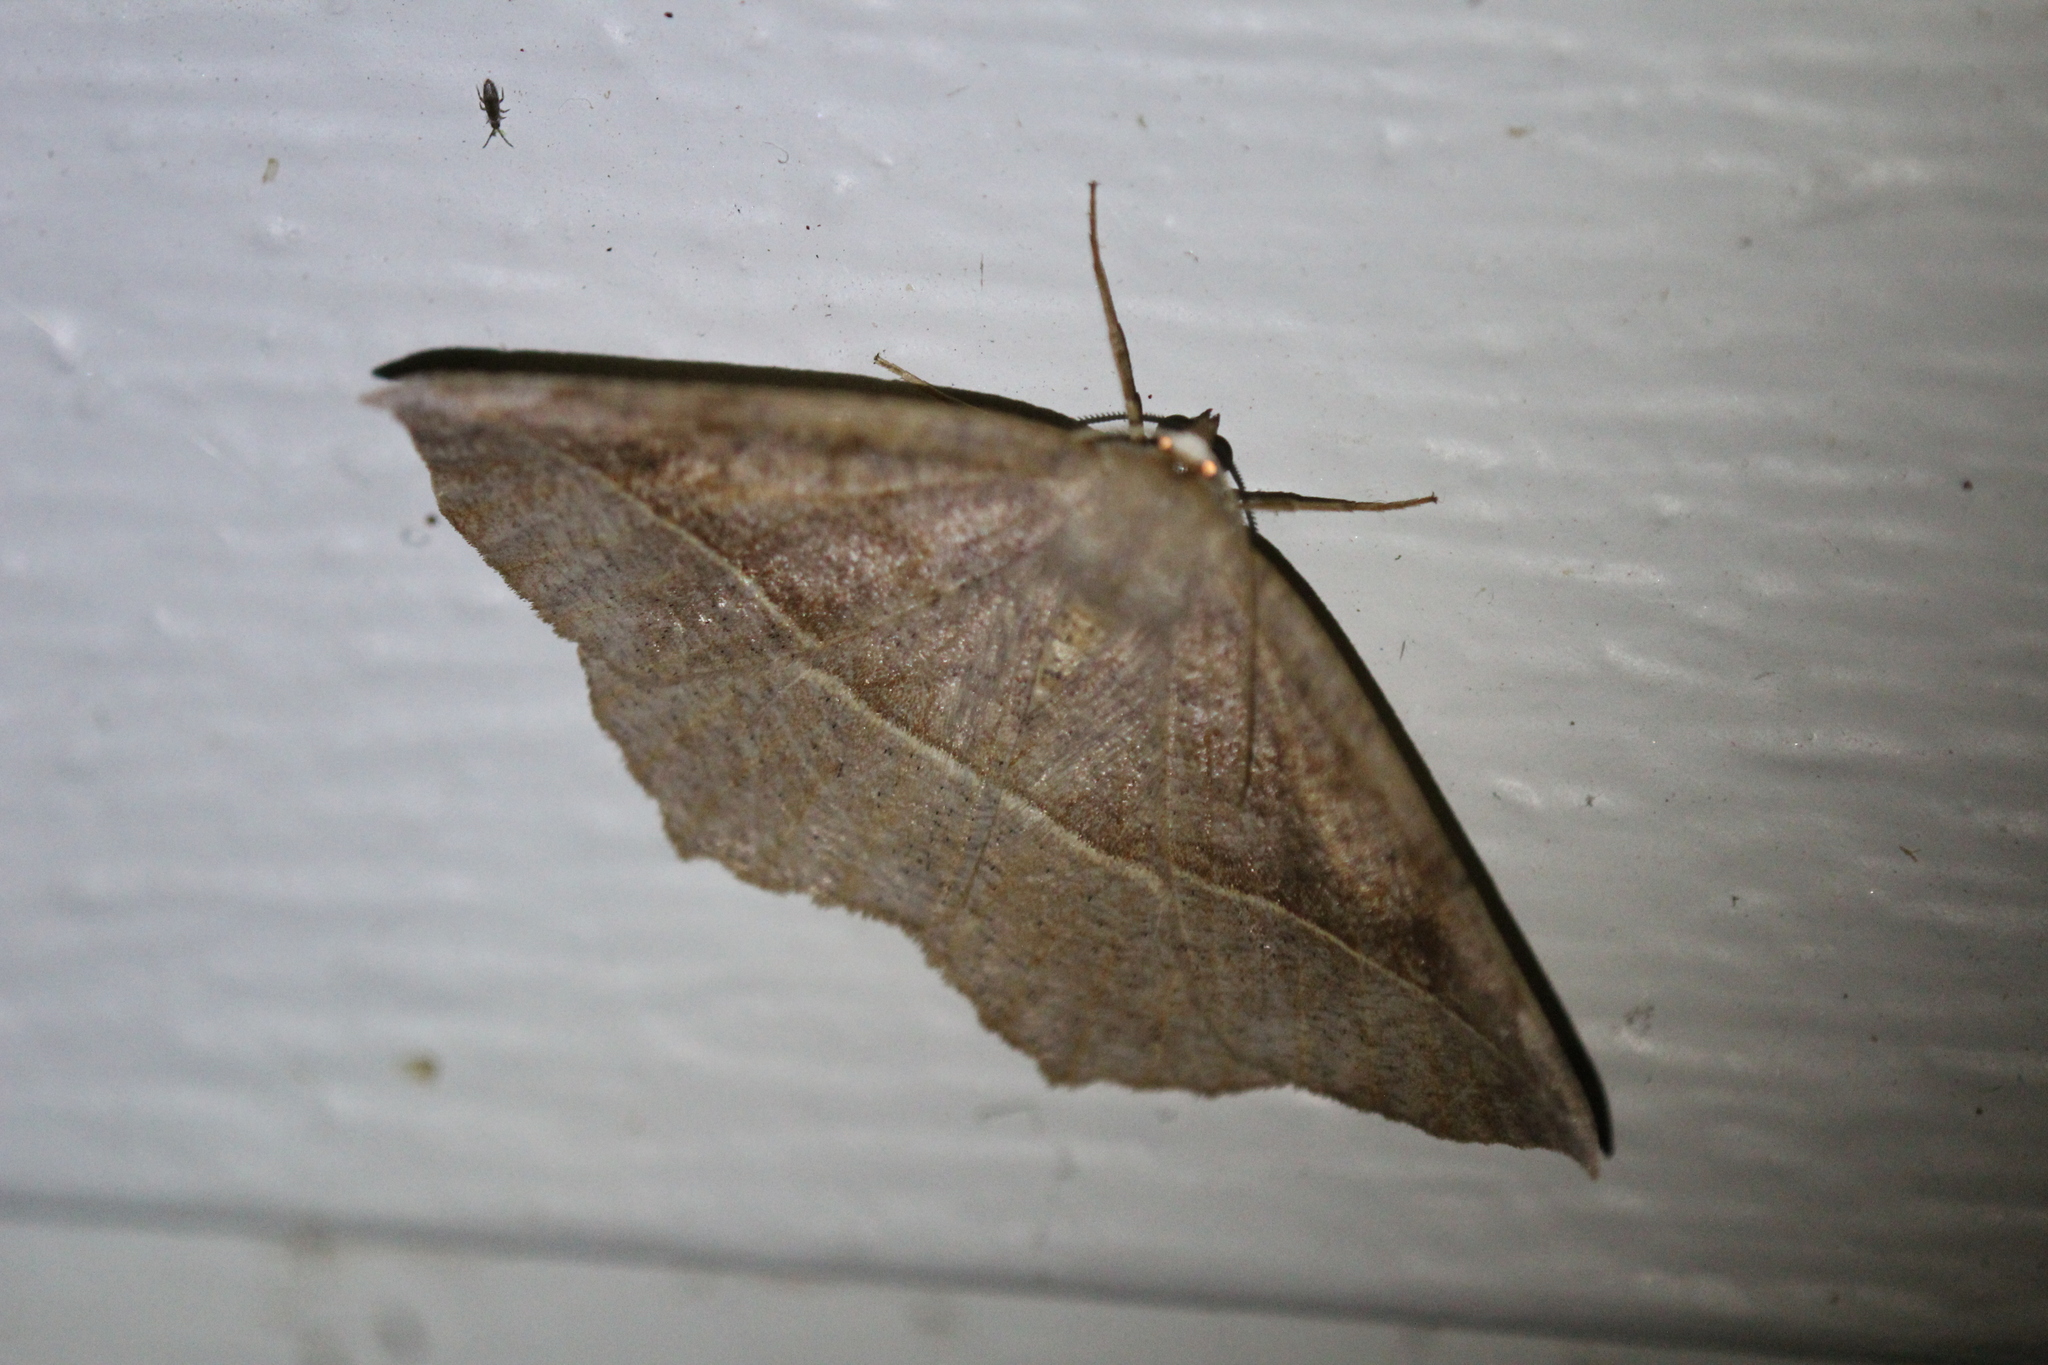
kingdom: Animalia
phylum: Arthropoda
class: Insecta
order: Lepidoptera
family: Geometridae
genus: Eutrapela
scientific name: Eutrapela clemataria
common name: Curved-toothed geometer
